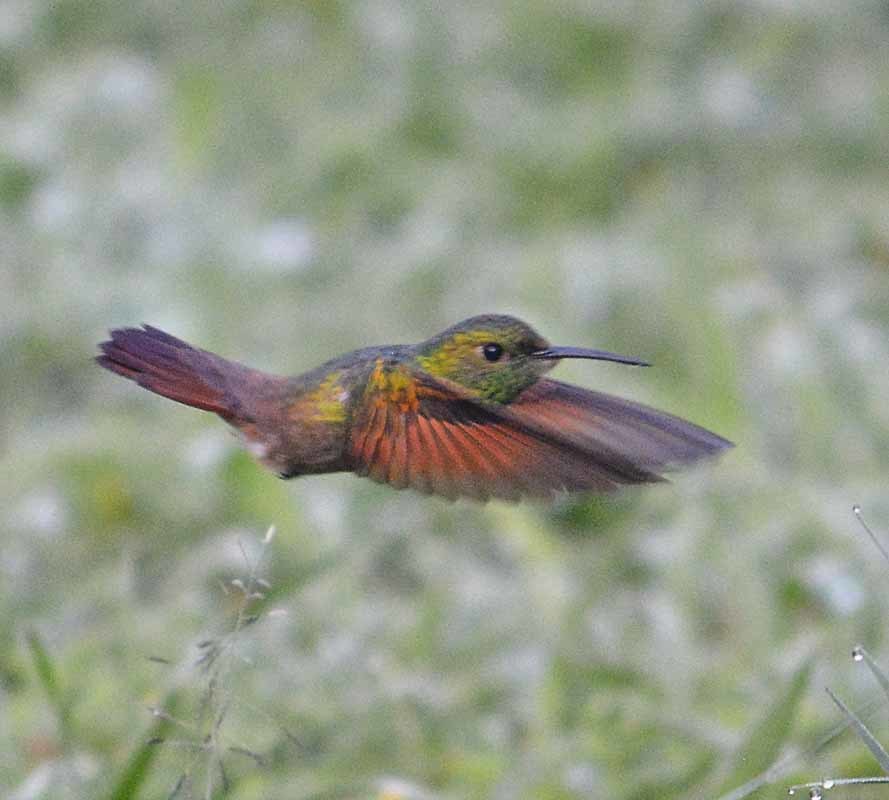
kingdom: Animalia
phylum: Chordata
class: Aves
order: Apodiformes
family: Trochilidae
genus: Saucerottia
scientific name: Saucerottia beryllina
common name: Berylline hummingbird
